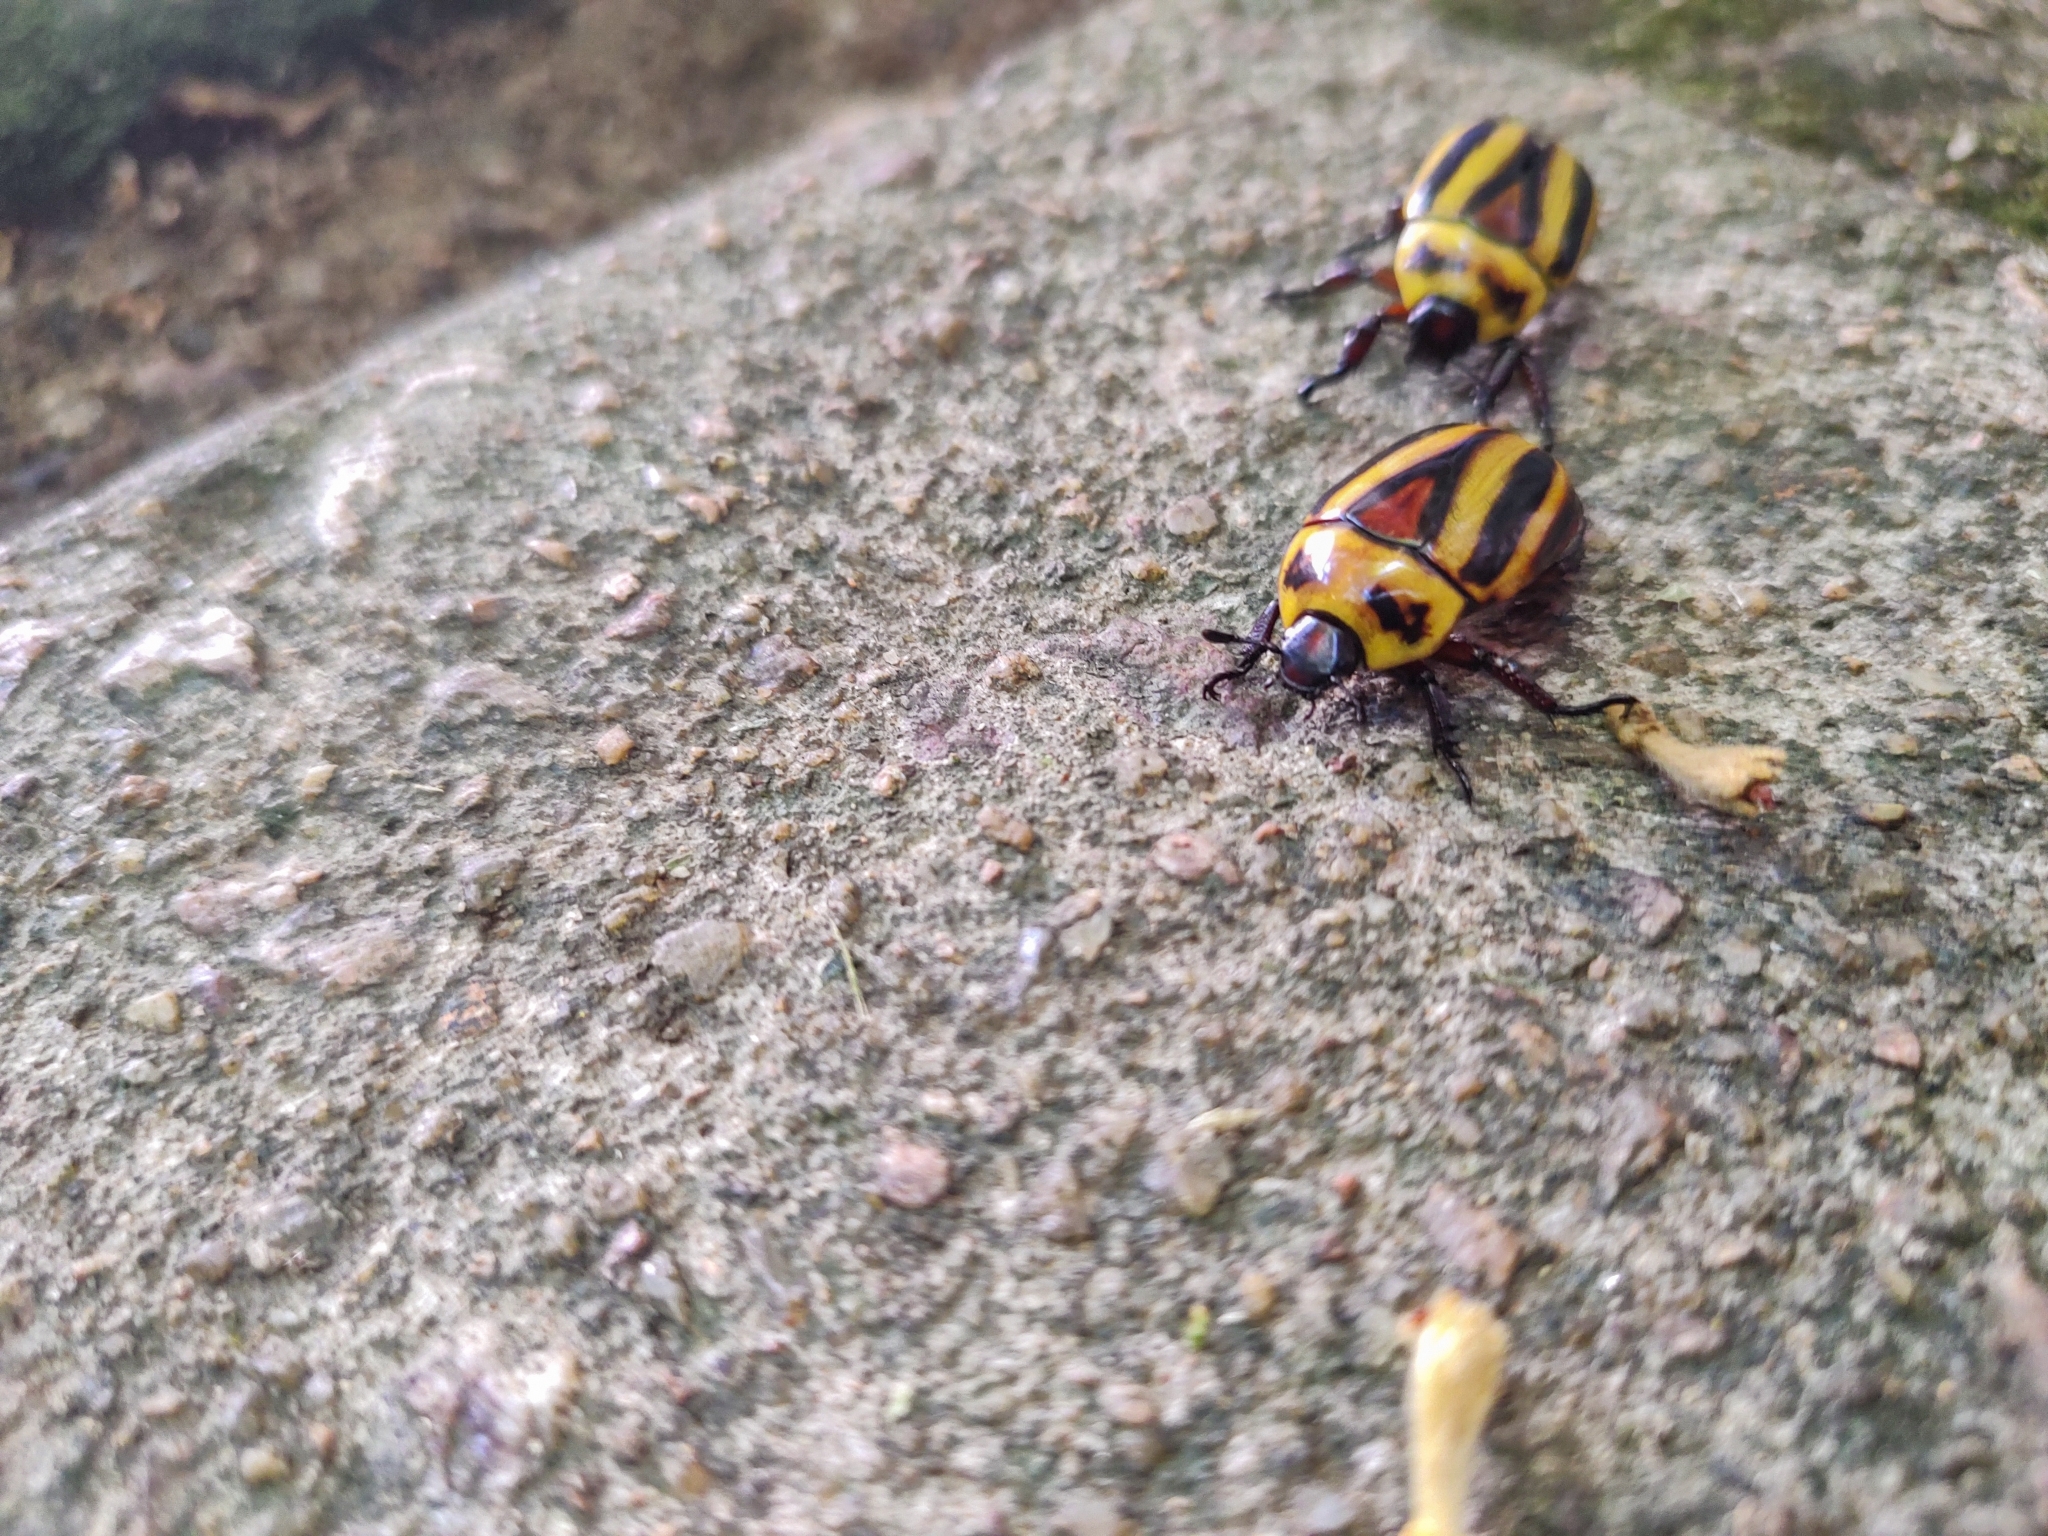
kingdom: Animalia
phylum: Arthropoda
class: Insecta
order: Coleoptera
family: Scarabaeidae
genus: Macraspis
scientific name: Macraspis cincta
